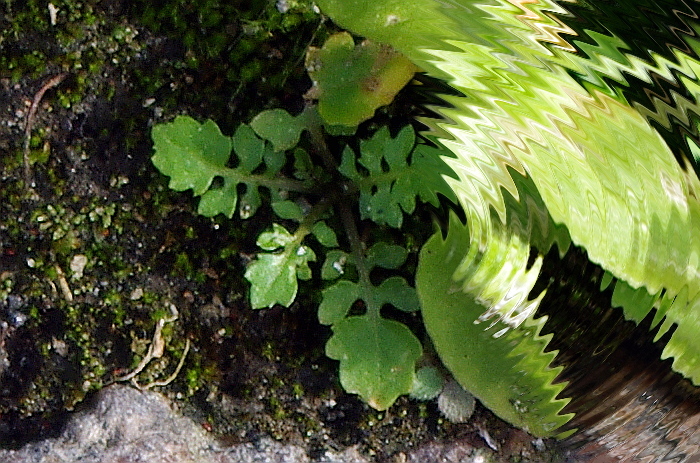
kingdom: Plantae
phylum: Tracheophyta
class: Magnoliopsida
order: Brassicales
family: Brassicaceae
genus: Rorippa
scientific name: Rorippa palustris
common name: Marsh yellow-cress
